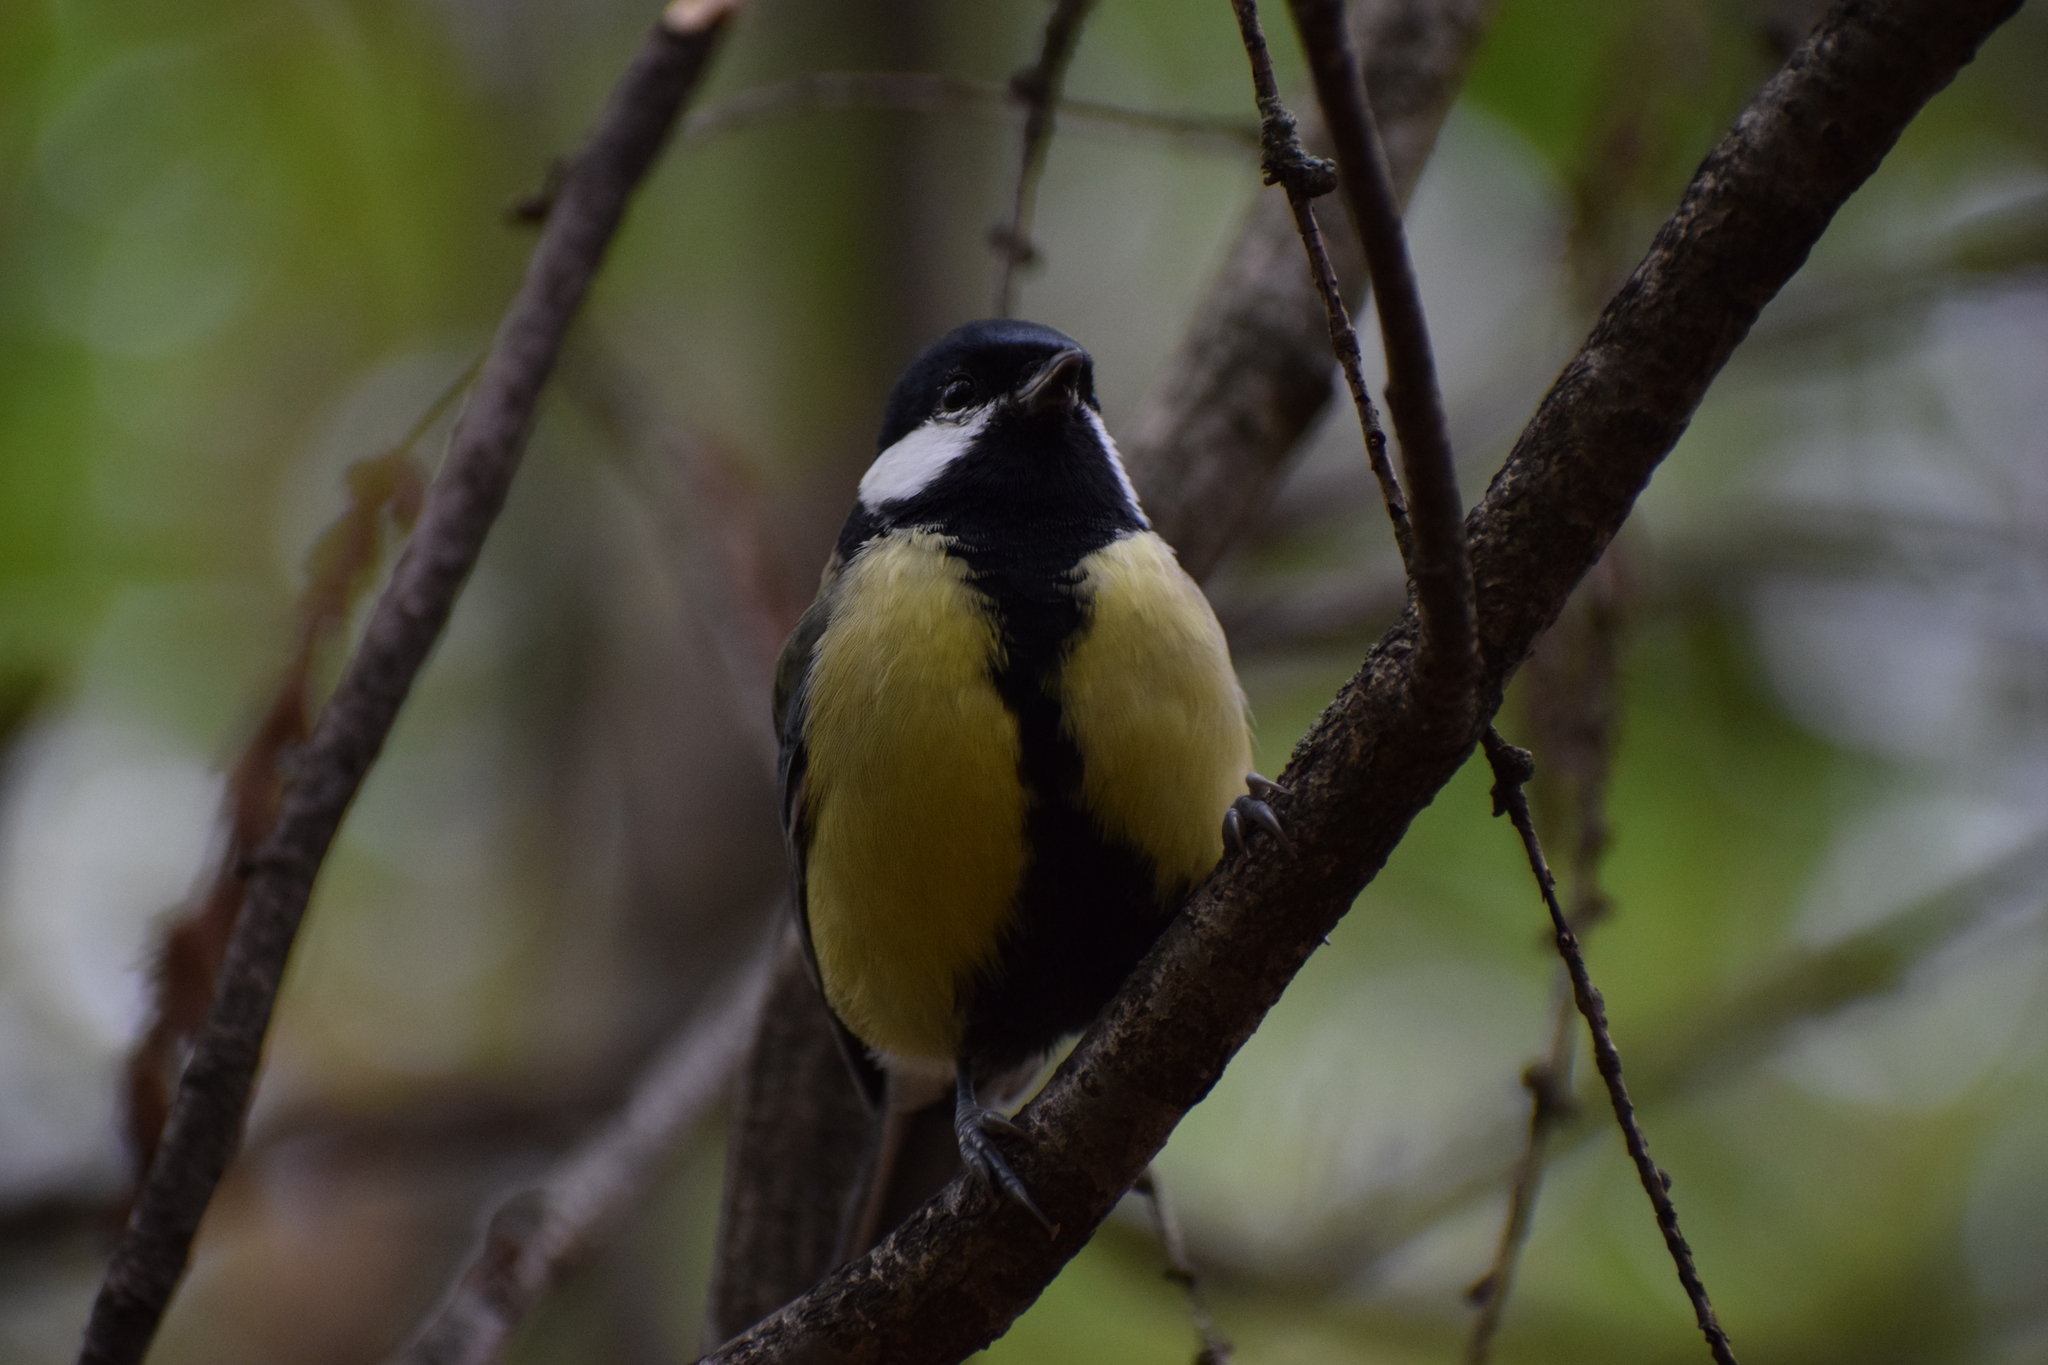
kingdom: Animalia
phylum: Chordata
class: Aves
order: Passeriformes
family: Paridae
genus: Parus
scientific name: Parus major
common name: Great tit
